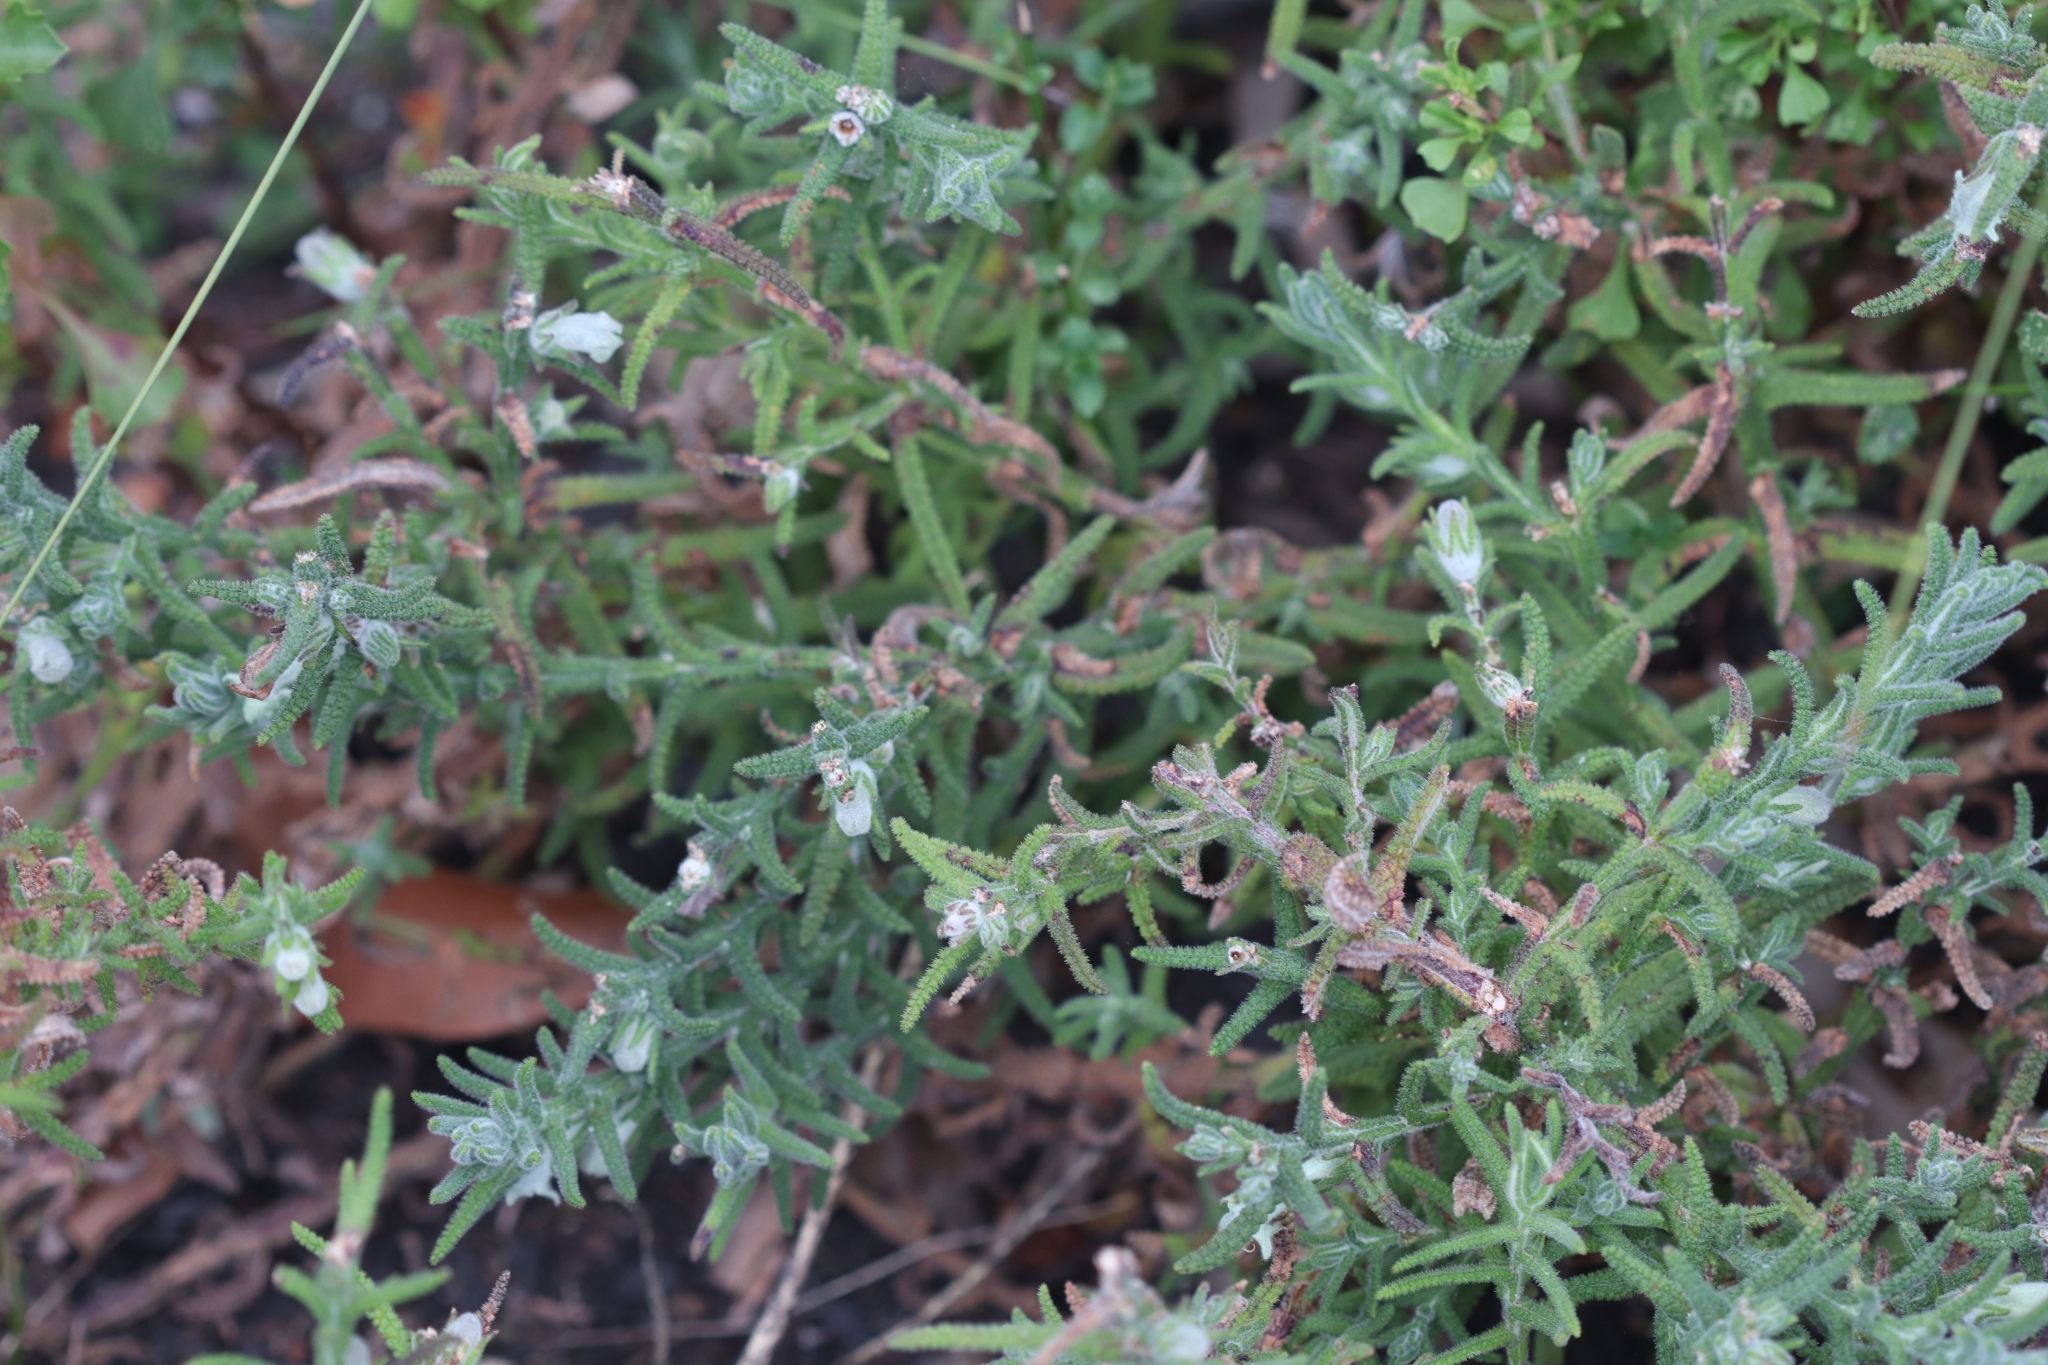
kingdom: Plantae
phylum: Tracheophyta
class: Magnoliopsida
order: Lamiales
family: Lamiaceae
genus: Chloanthes
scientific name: Chloanthes stoechadis
